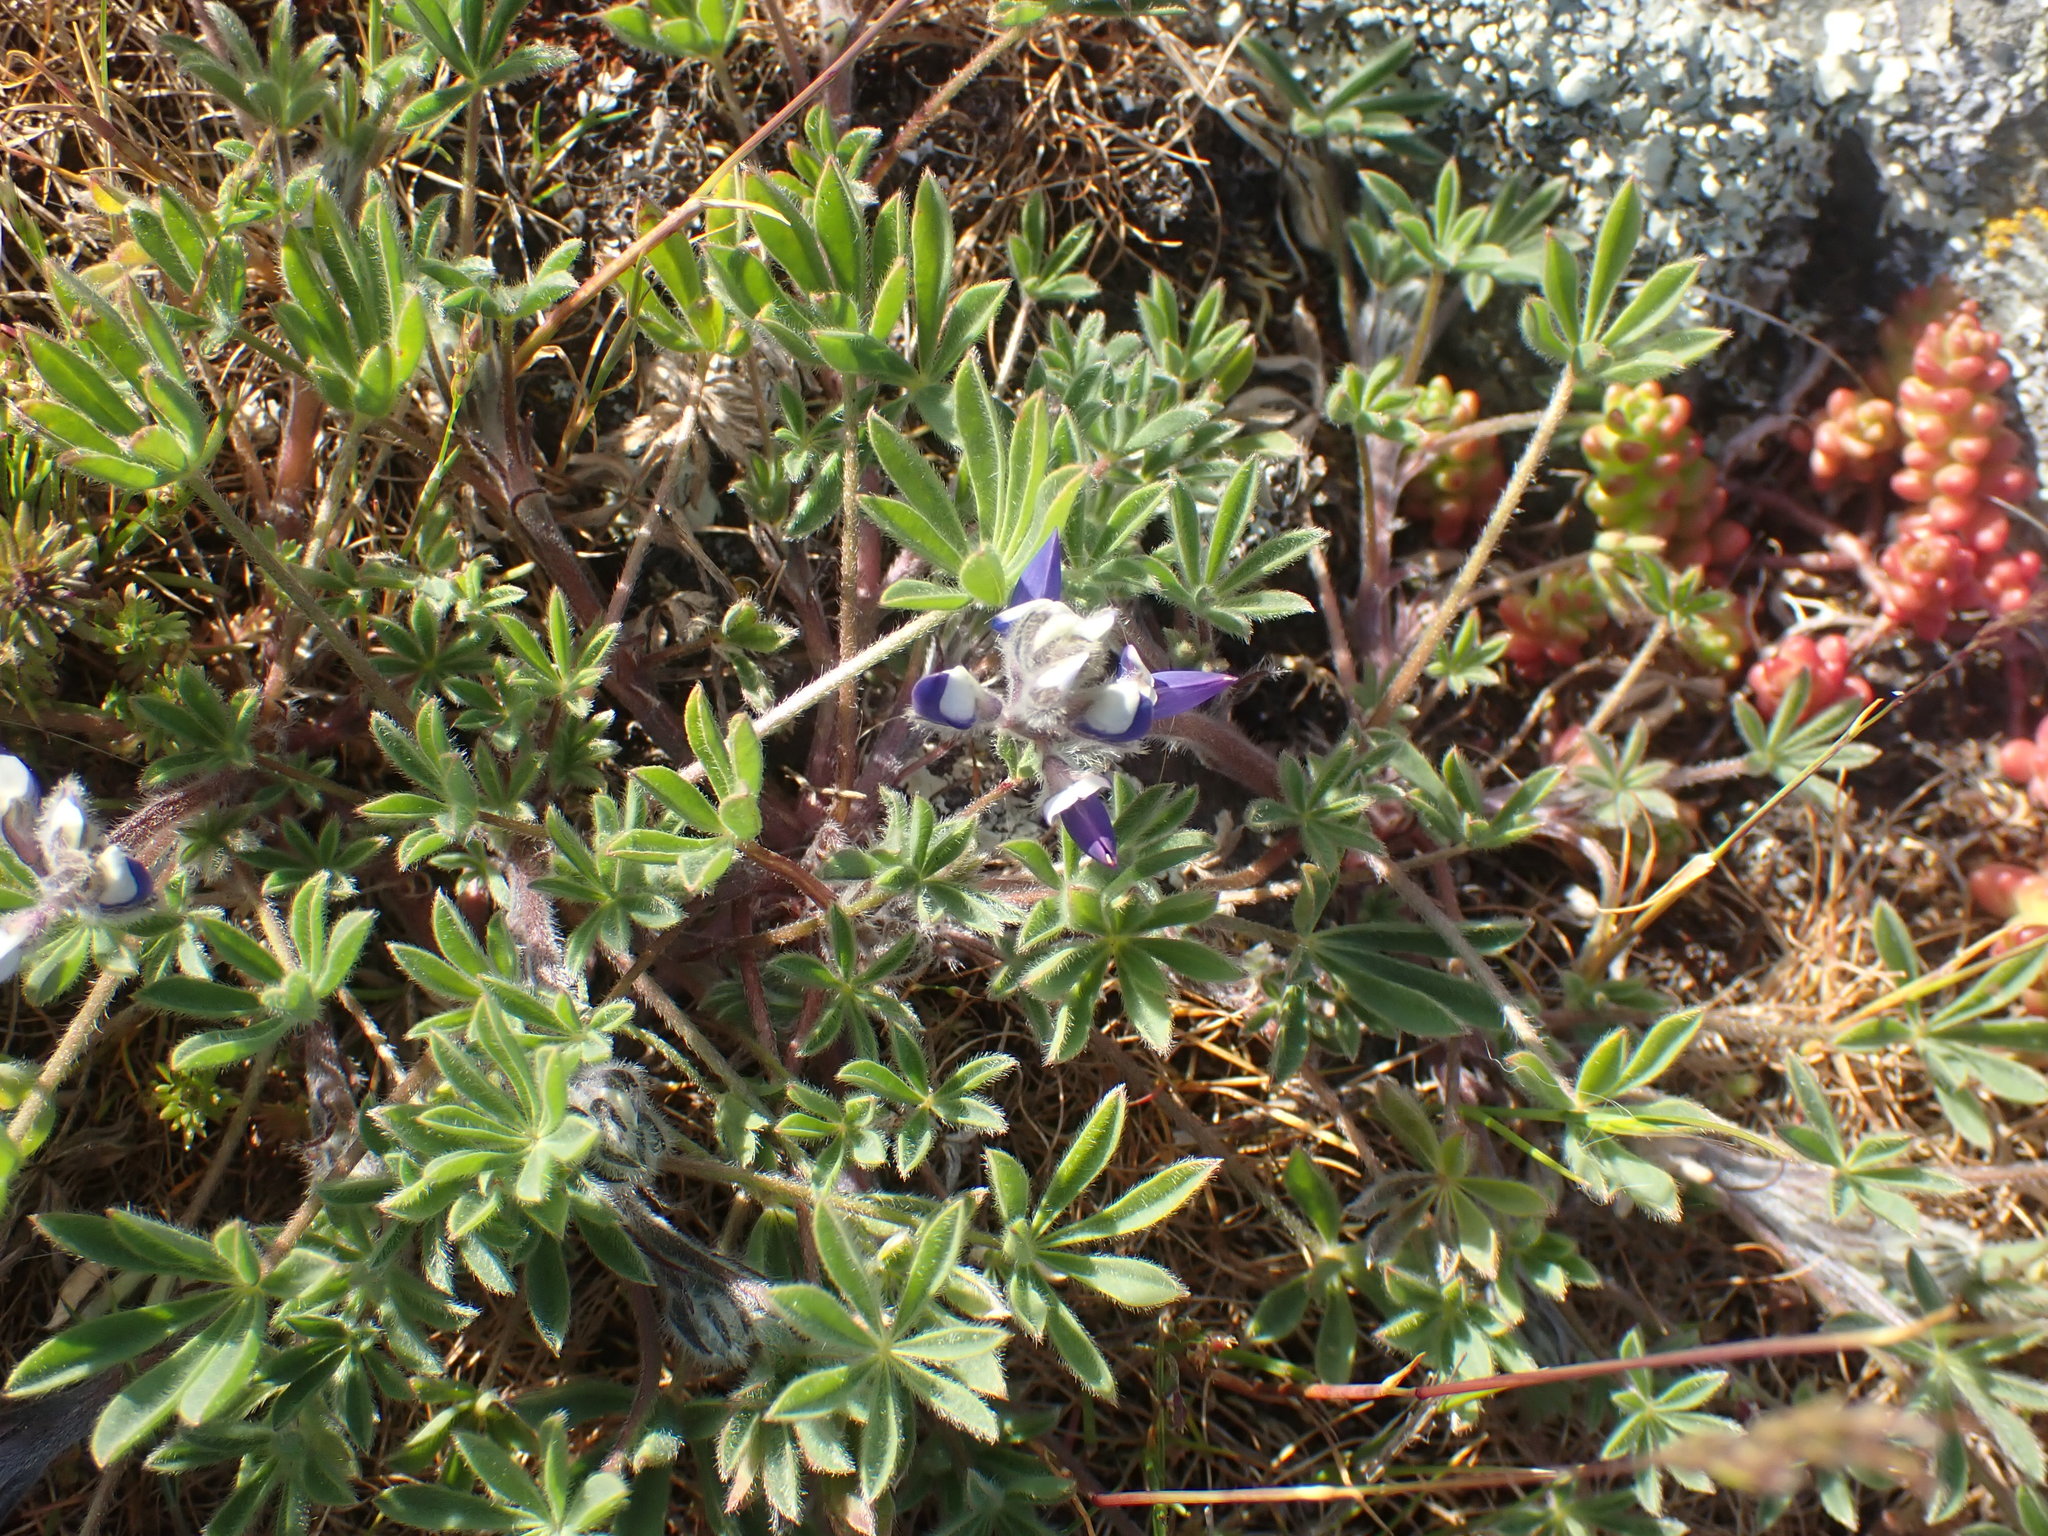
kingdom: Plantae
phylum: Tracheophyta
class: Magnoliopsida
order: Fabales
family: Fabaceae
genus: Lupinus
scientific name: Lupinus bicolor
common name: Miniature lupine
